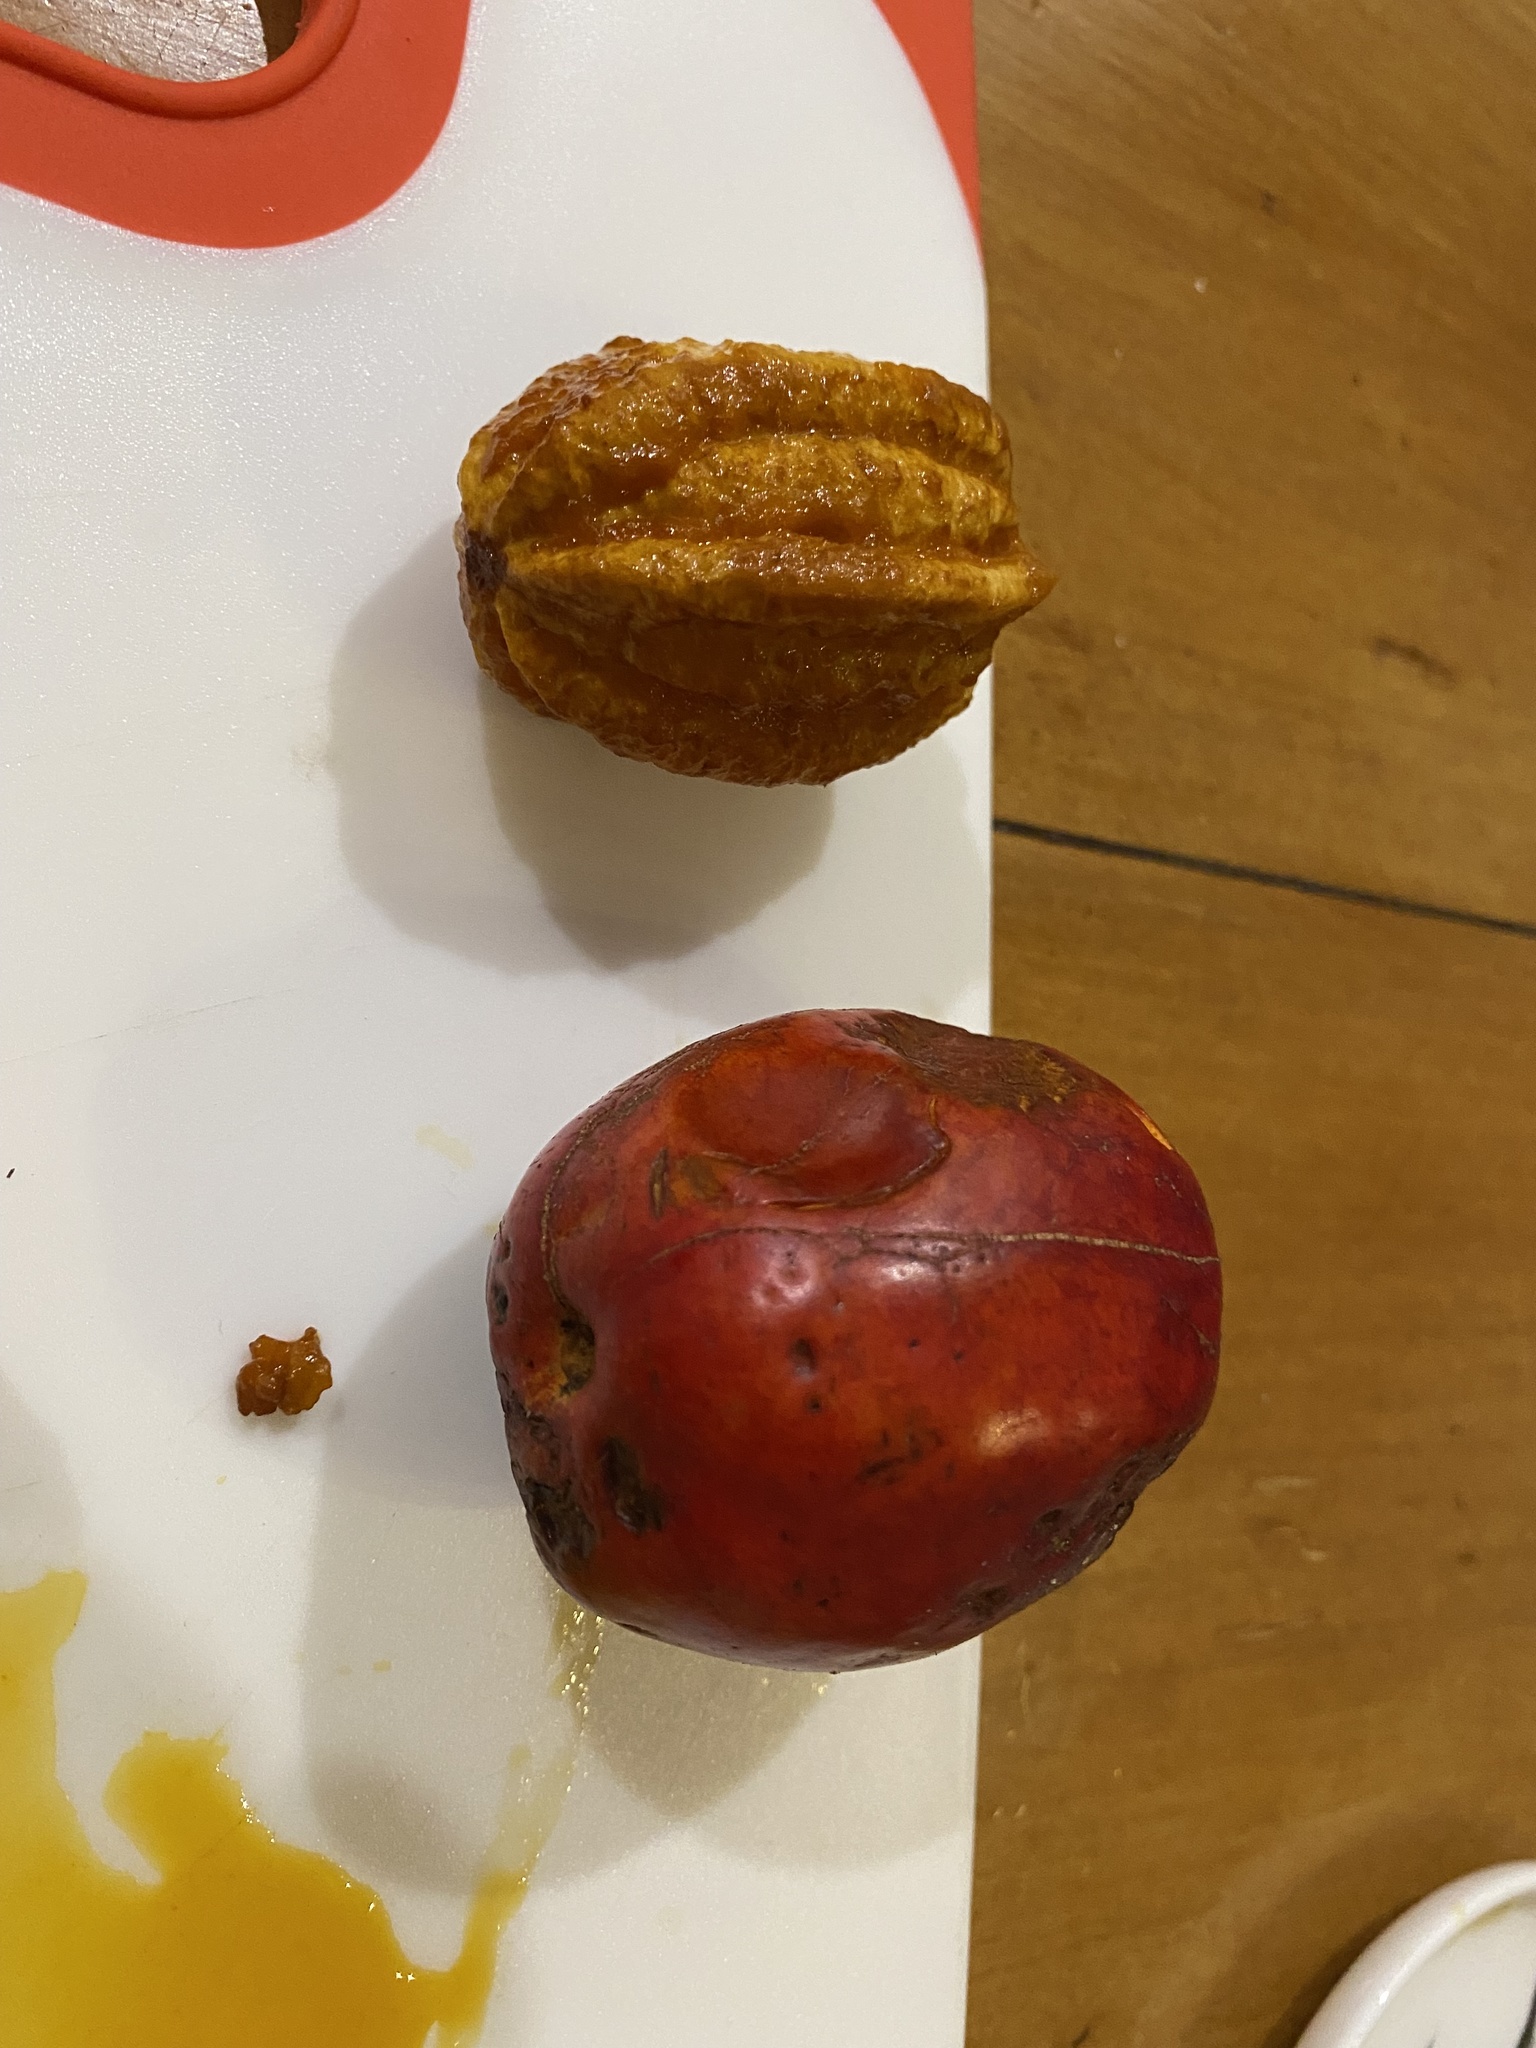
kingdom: Plantae
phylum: Tracheophyta
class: Magnoliopsida
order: Laurales
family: Lauraceae
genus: Cryptocarya
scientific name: Cryptocarya pleurosperma
